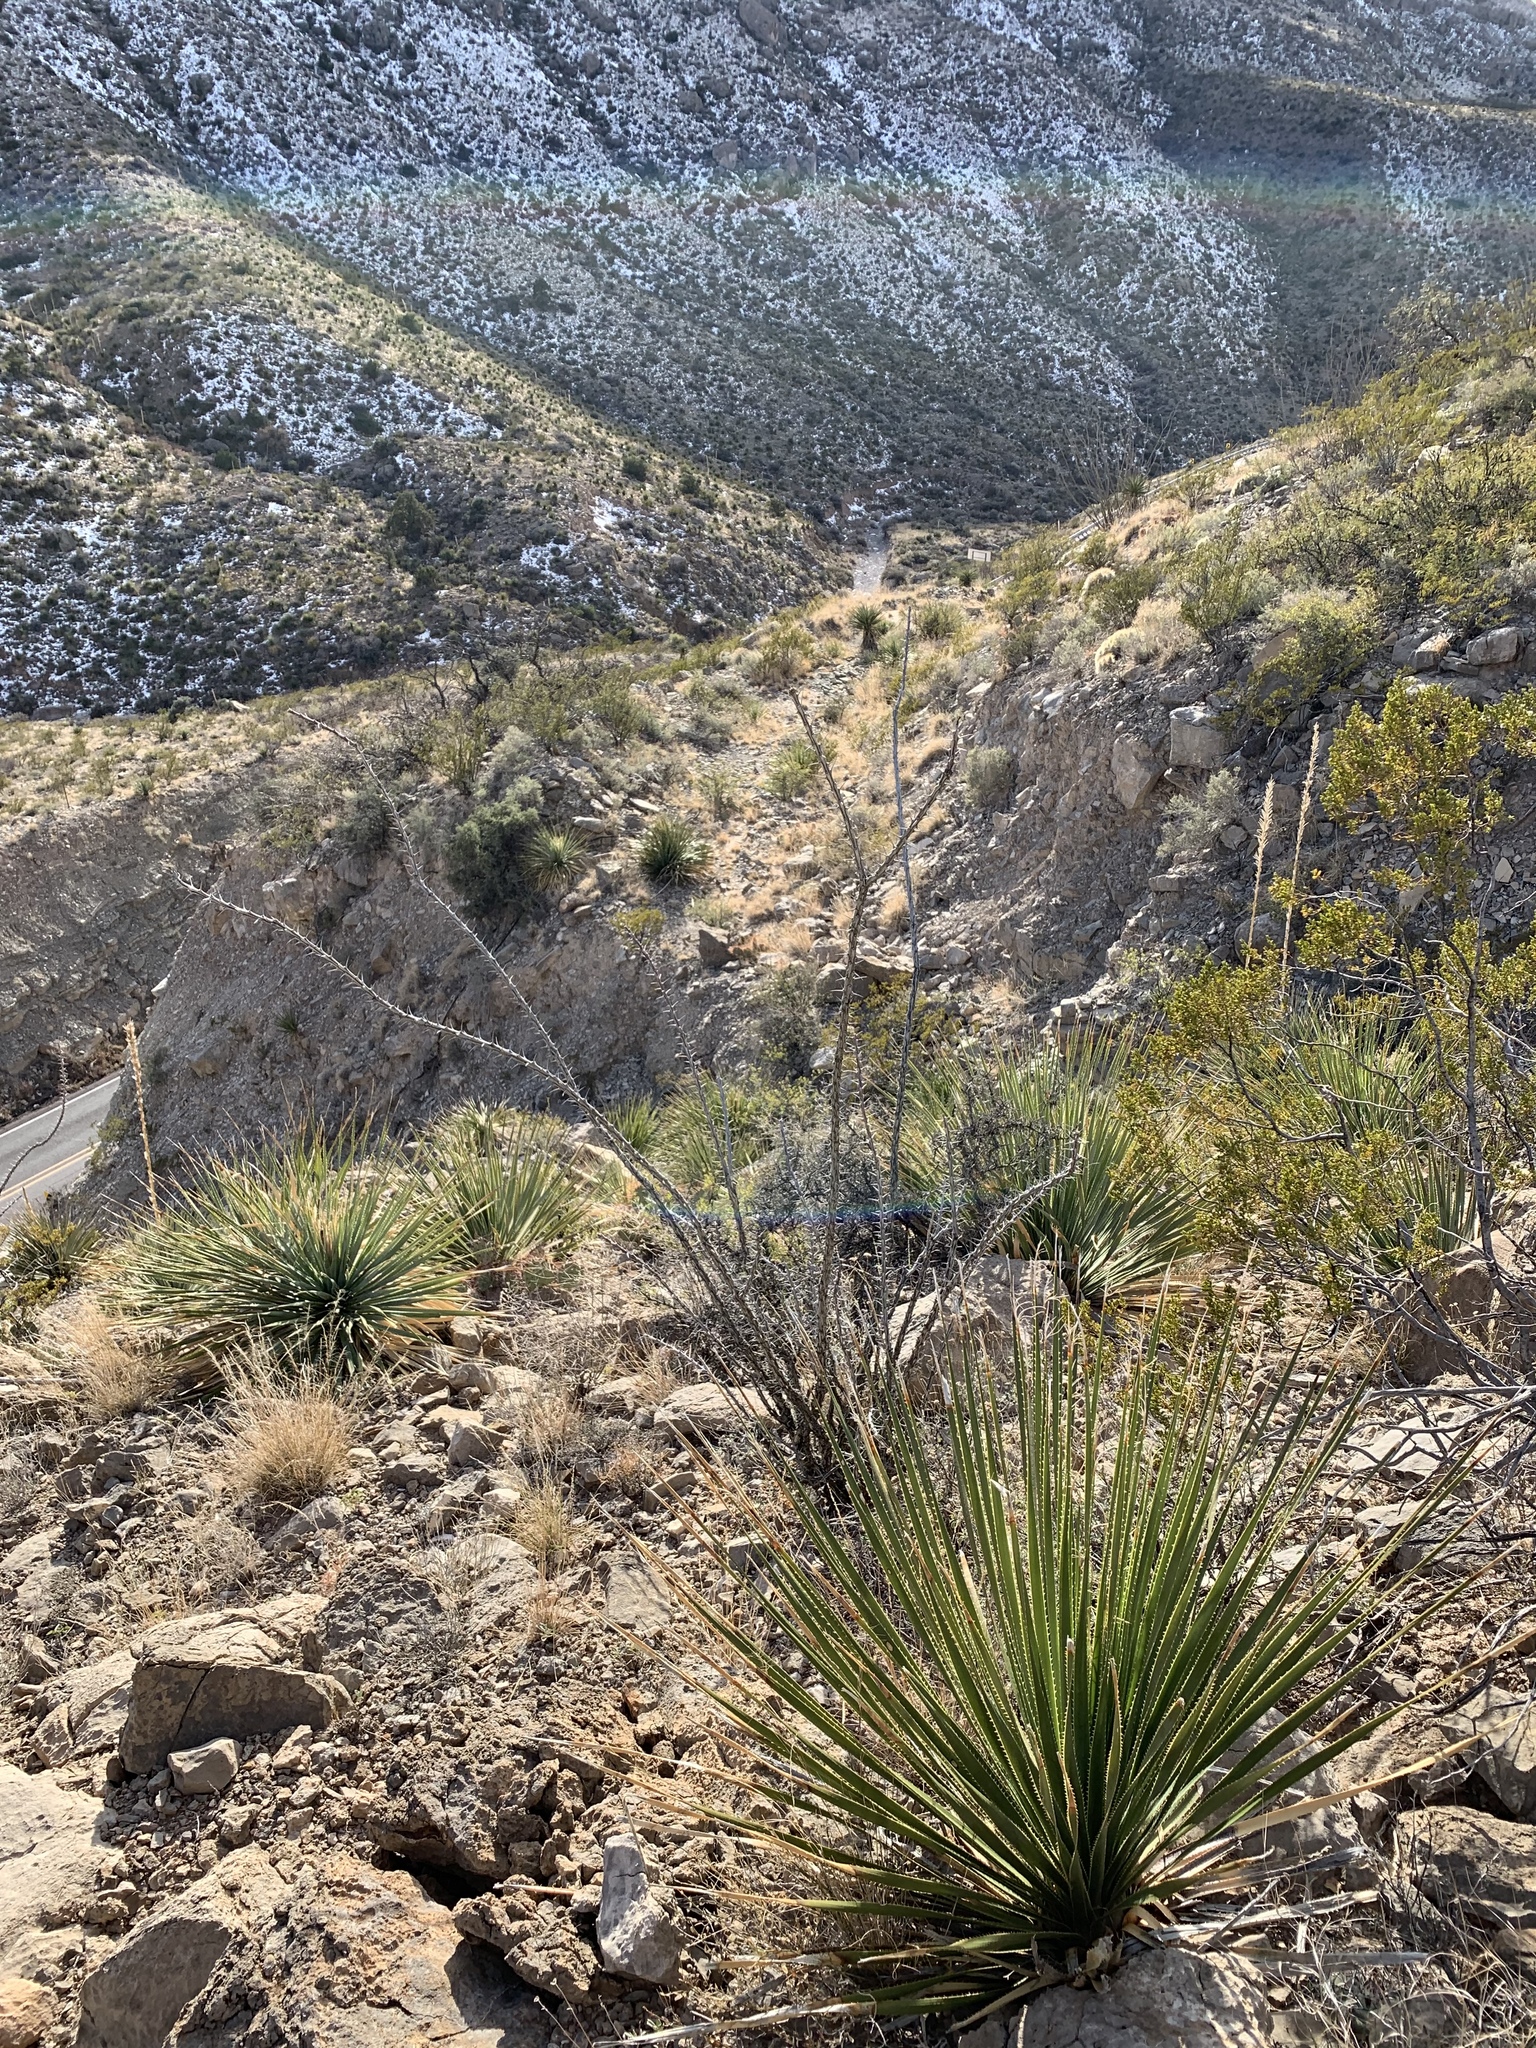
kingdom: Plantae
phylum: Tracheophyta
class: Magnoliopsida
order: Ericales
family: Fouquieriaceae
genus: Fouquieria
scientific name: Fouquieria splendens
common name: Vine-cactus
